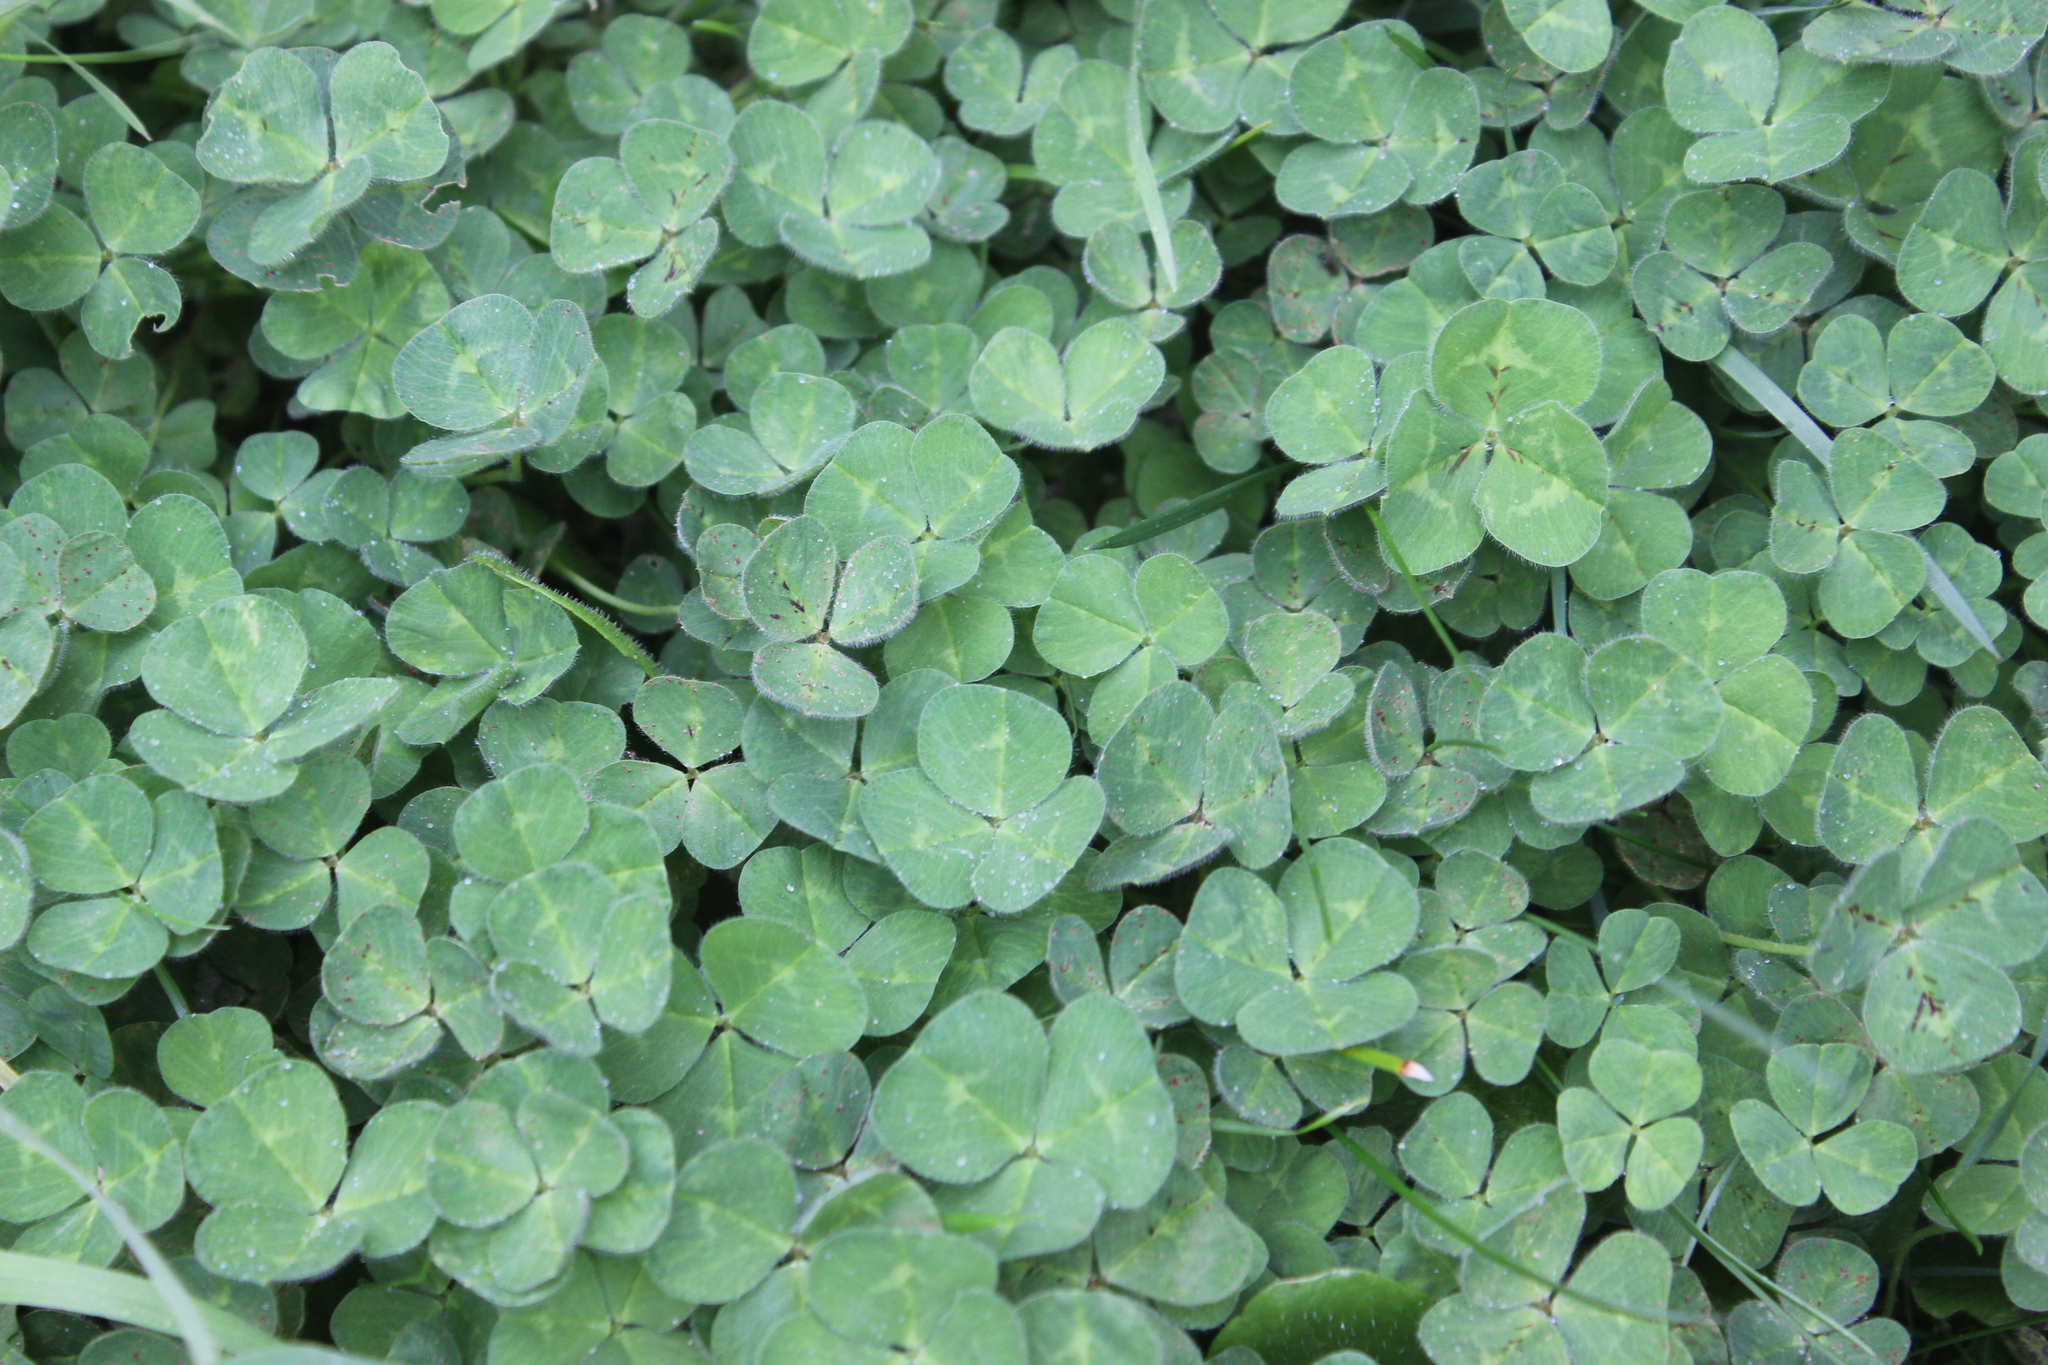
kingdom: Plantae
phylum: Tracheophyta
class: Magnoliopsida
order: Fabales
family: Fabaceae
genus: Trifolium
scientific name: Trifolium subterraneum
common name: Subterranean clover
